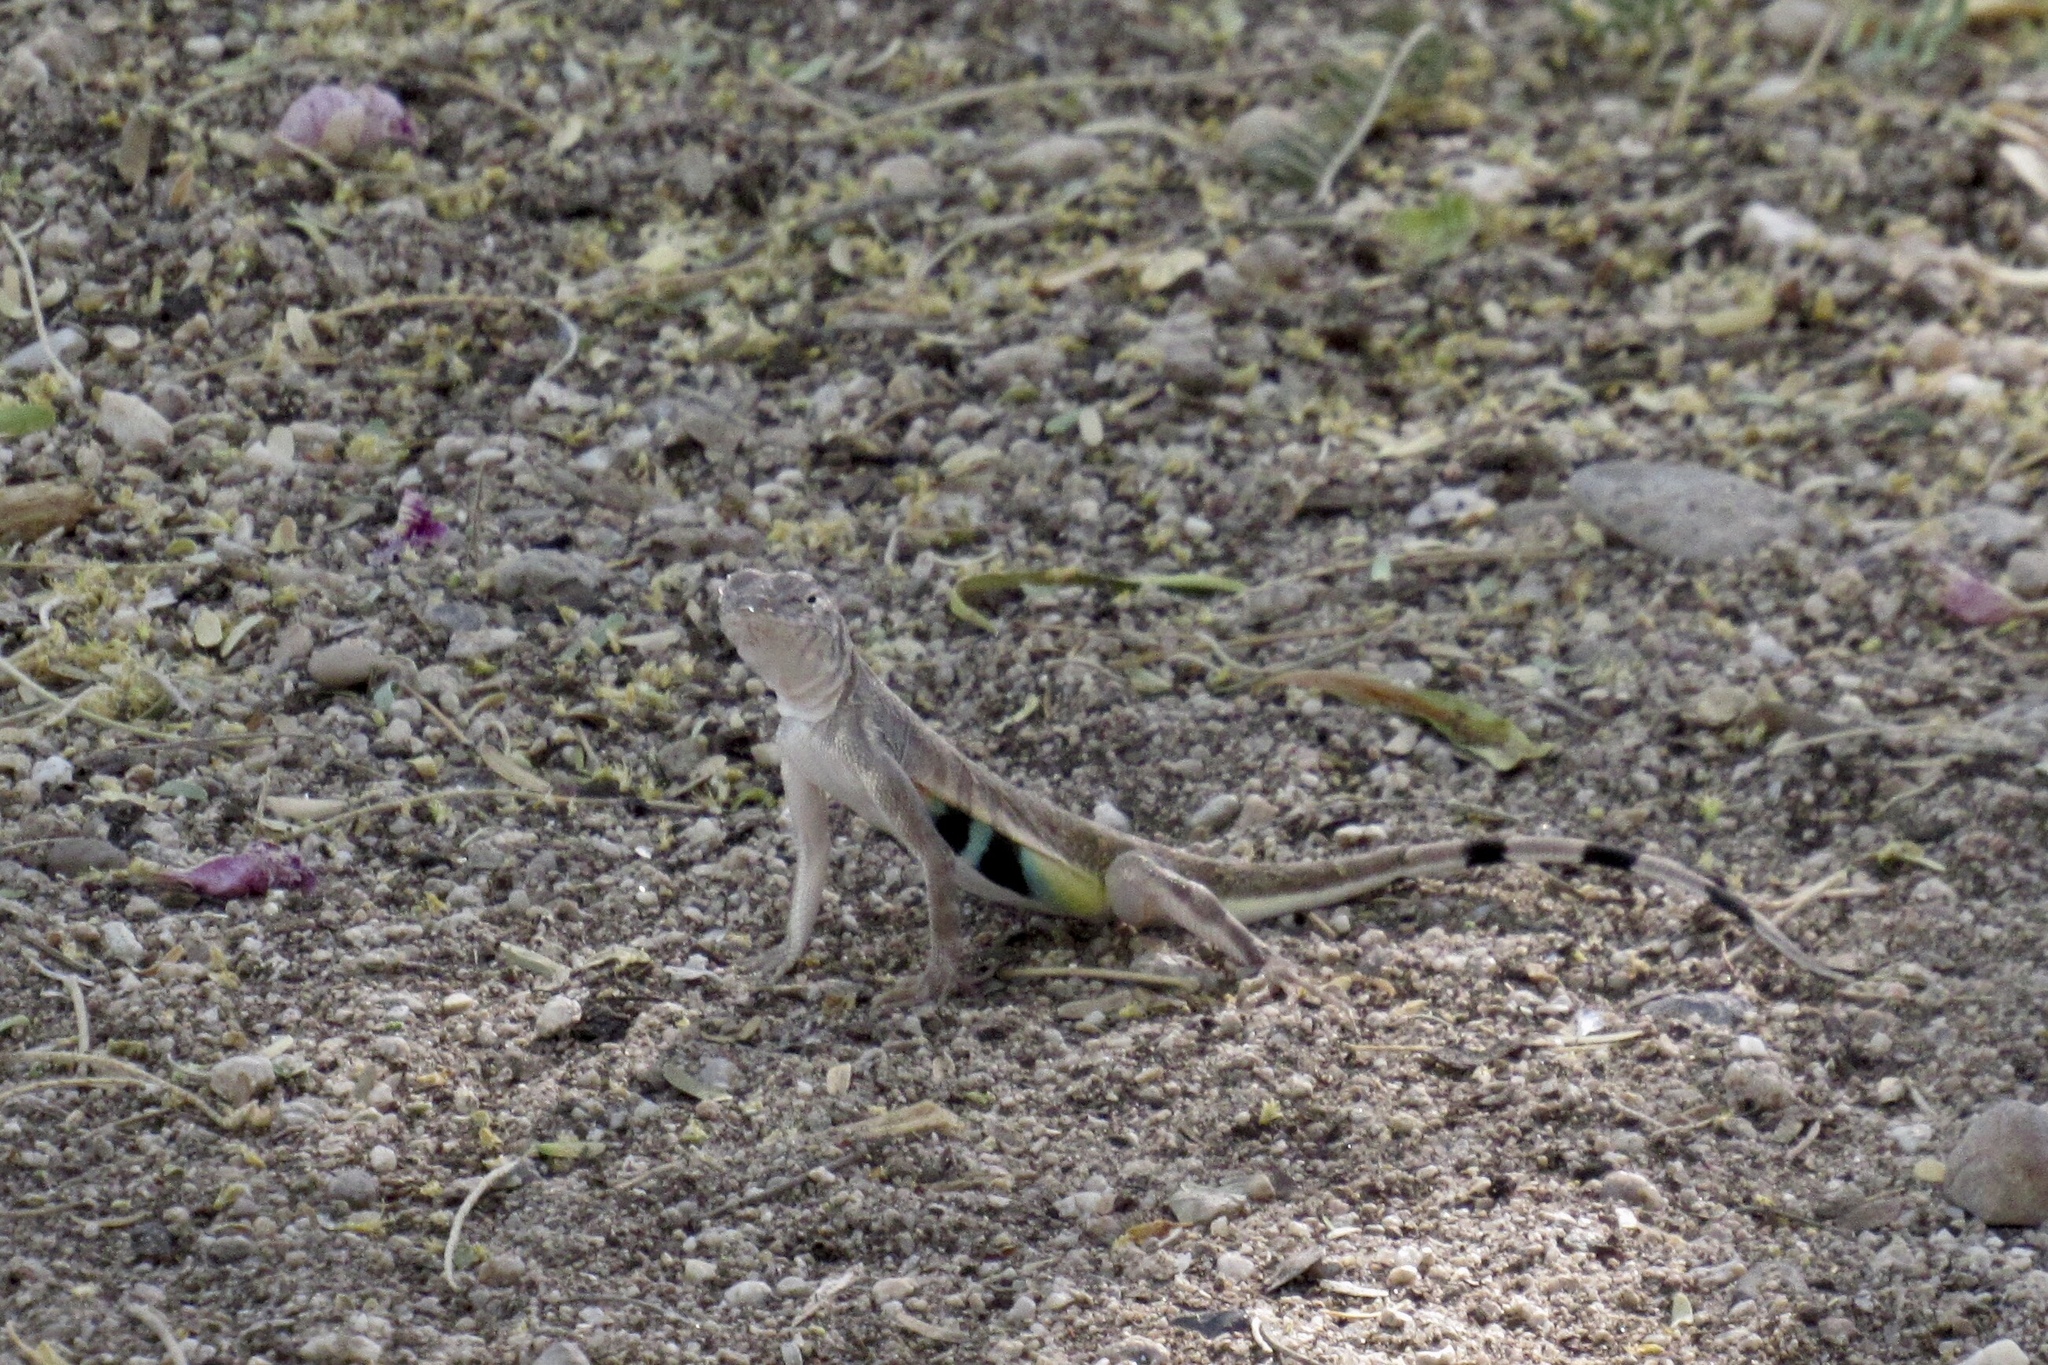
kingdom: Animalia
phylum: Chordata
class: Squamata
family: Phrynosomatidae
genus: Callisaurus
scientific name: Callisaurus draconoides
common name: Zebra-tailed lizard
